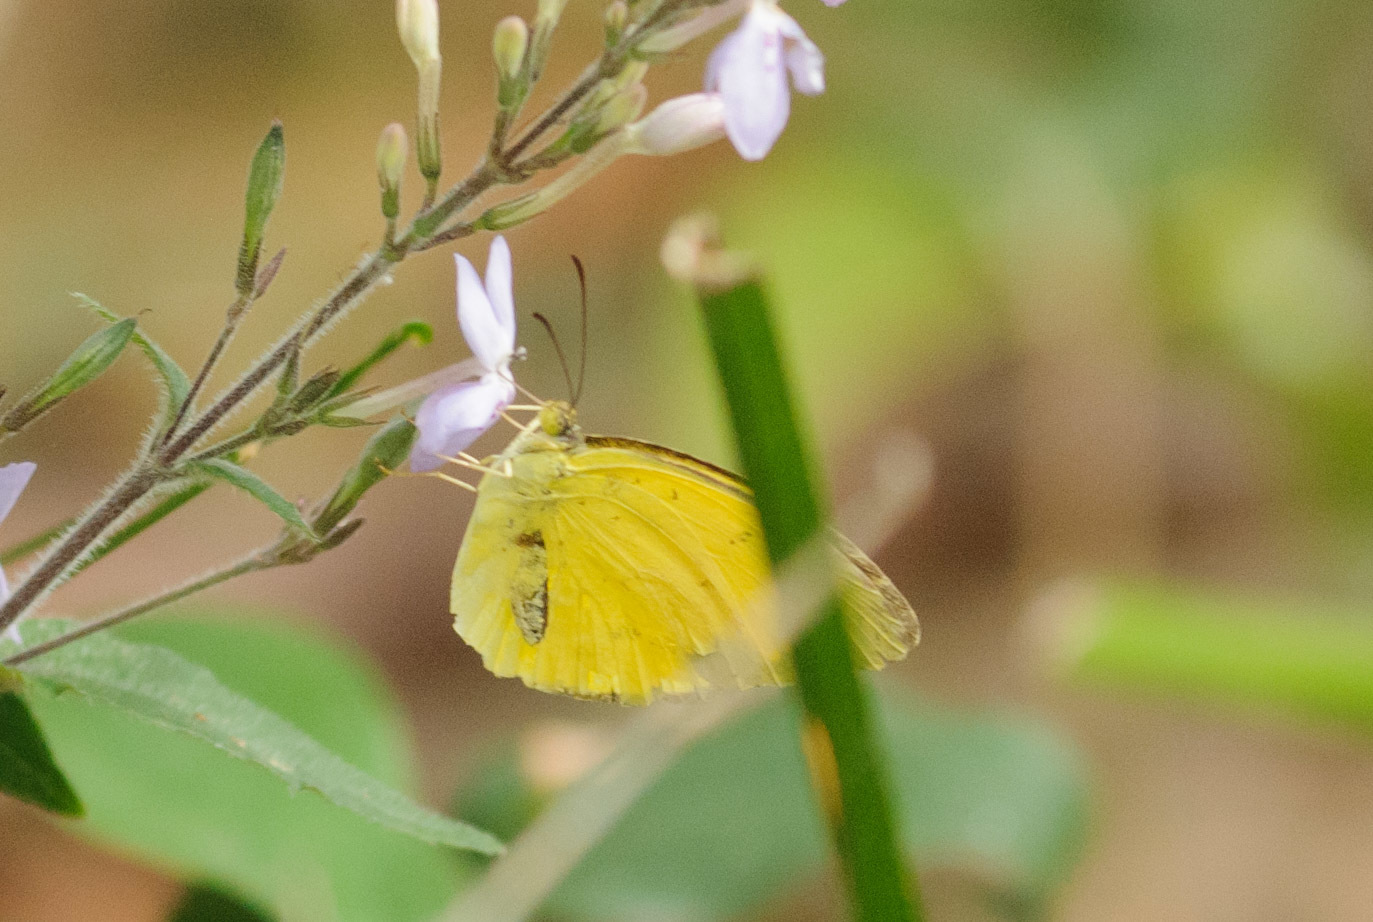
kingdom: Animalia
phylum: Arthropoda
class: Insecta
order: Lepidoptera
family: Pieridae
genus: Eurema
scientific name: Eurema hecabe
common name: Pale grass yellow
